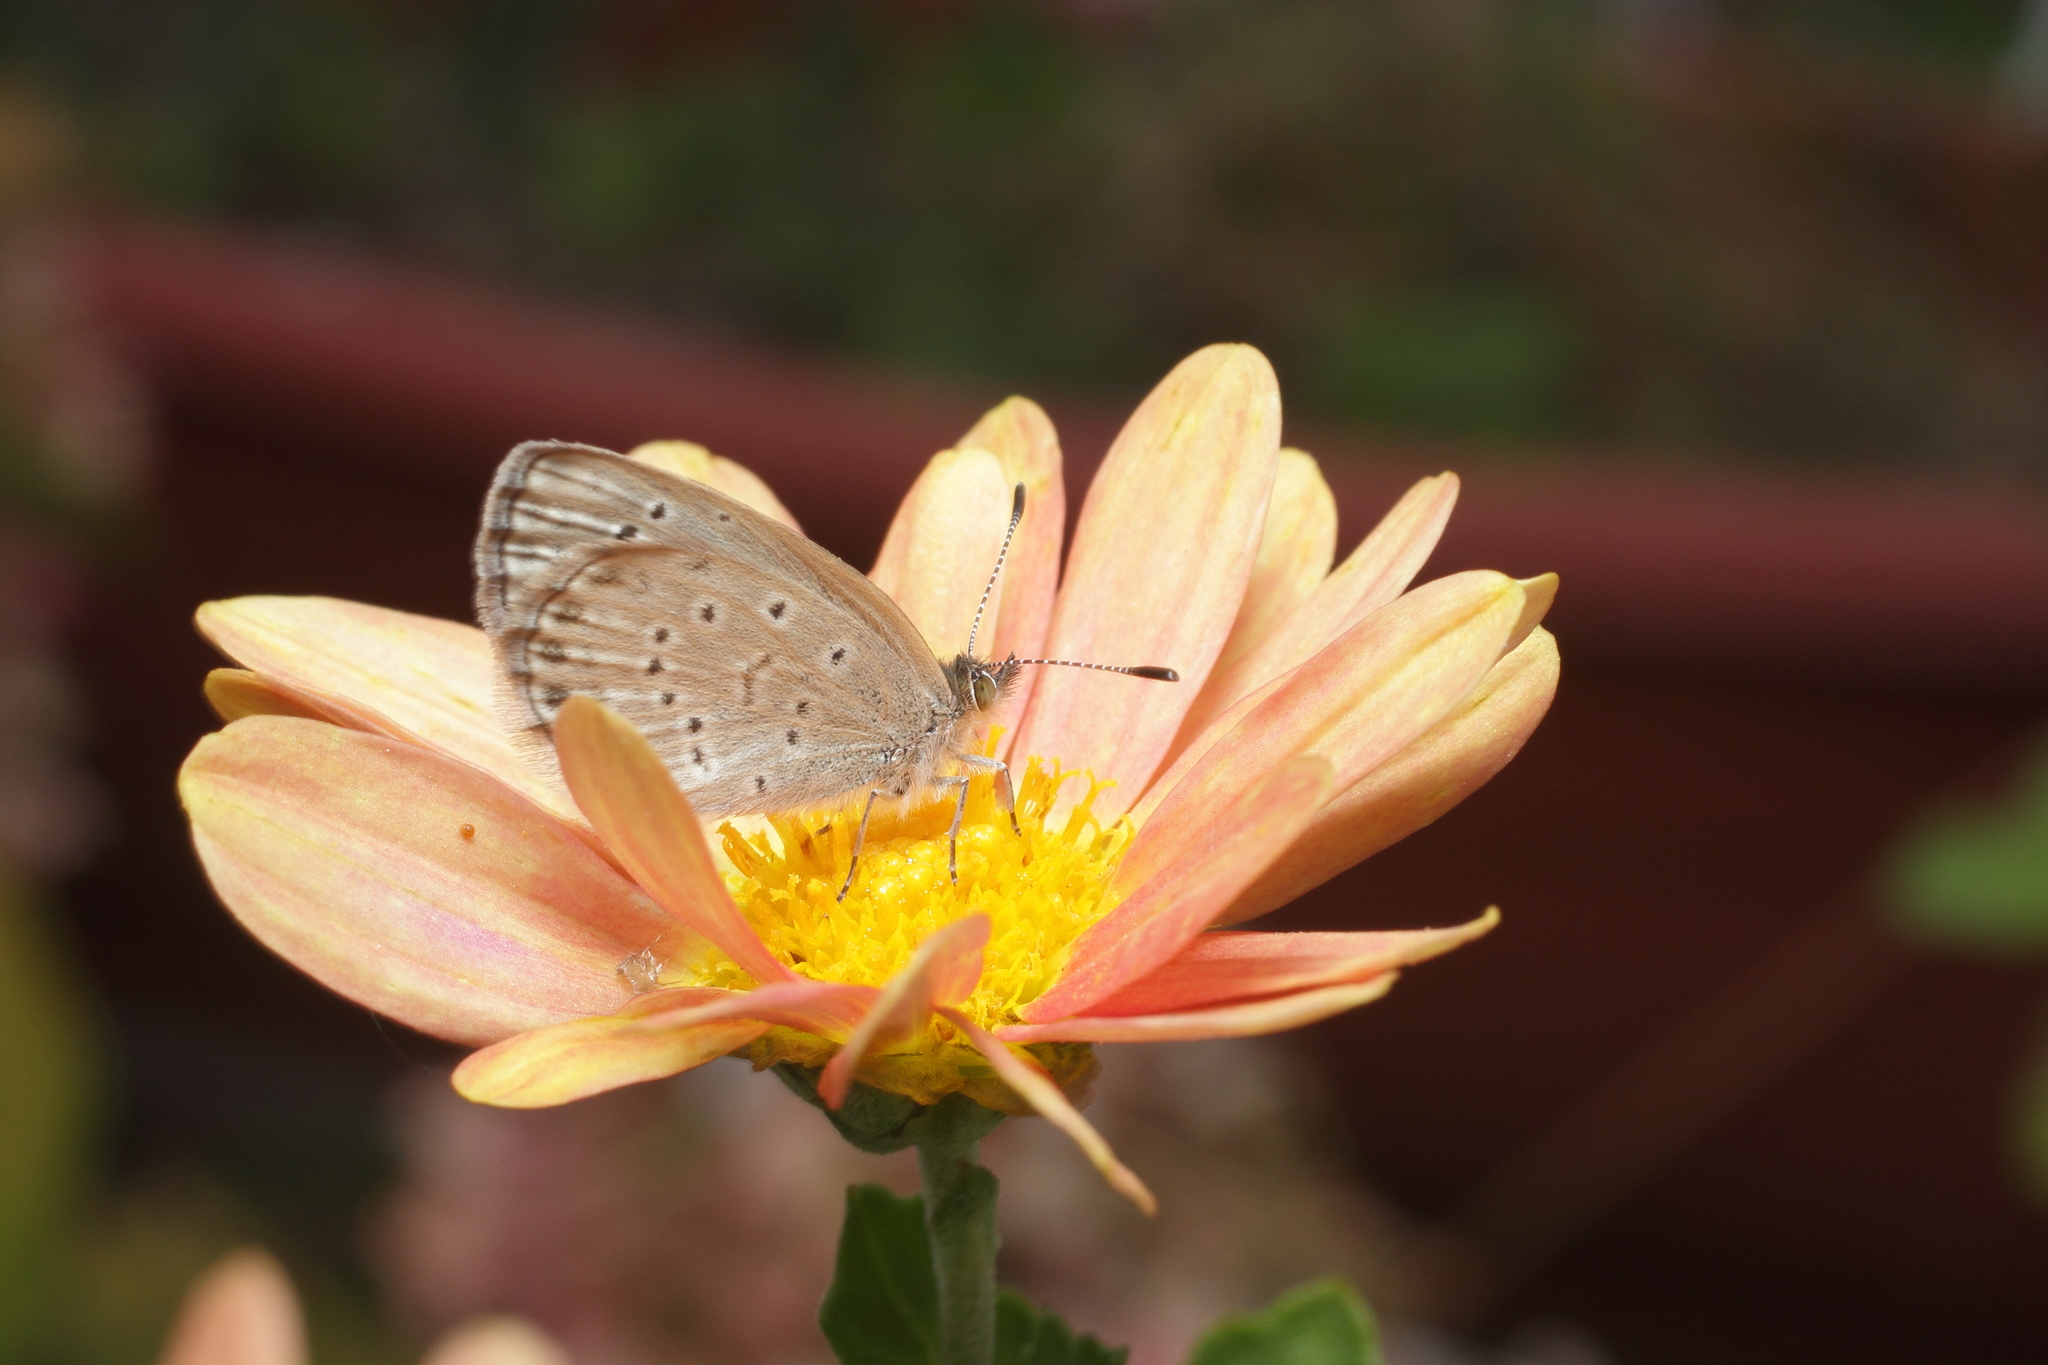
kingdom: Animalia
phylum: Arthropoda
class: Insecta
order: Lepidoptera
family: Lycaenidae
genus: Pseudozizeeria
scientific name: Pseudozizeeria maha
